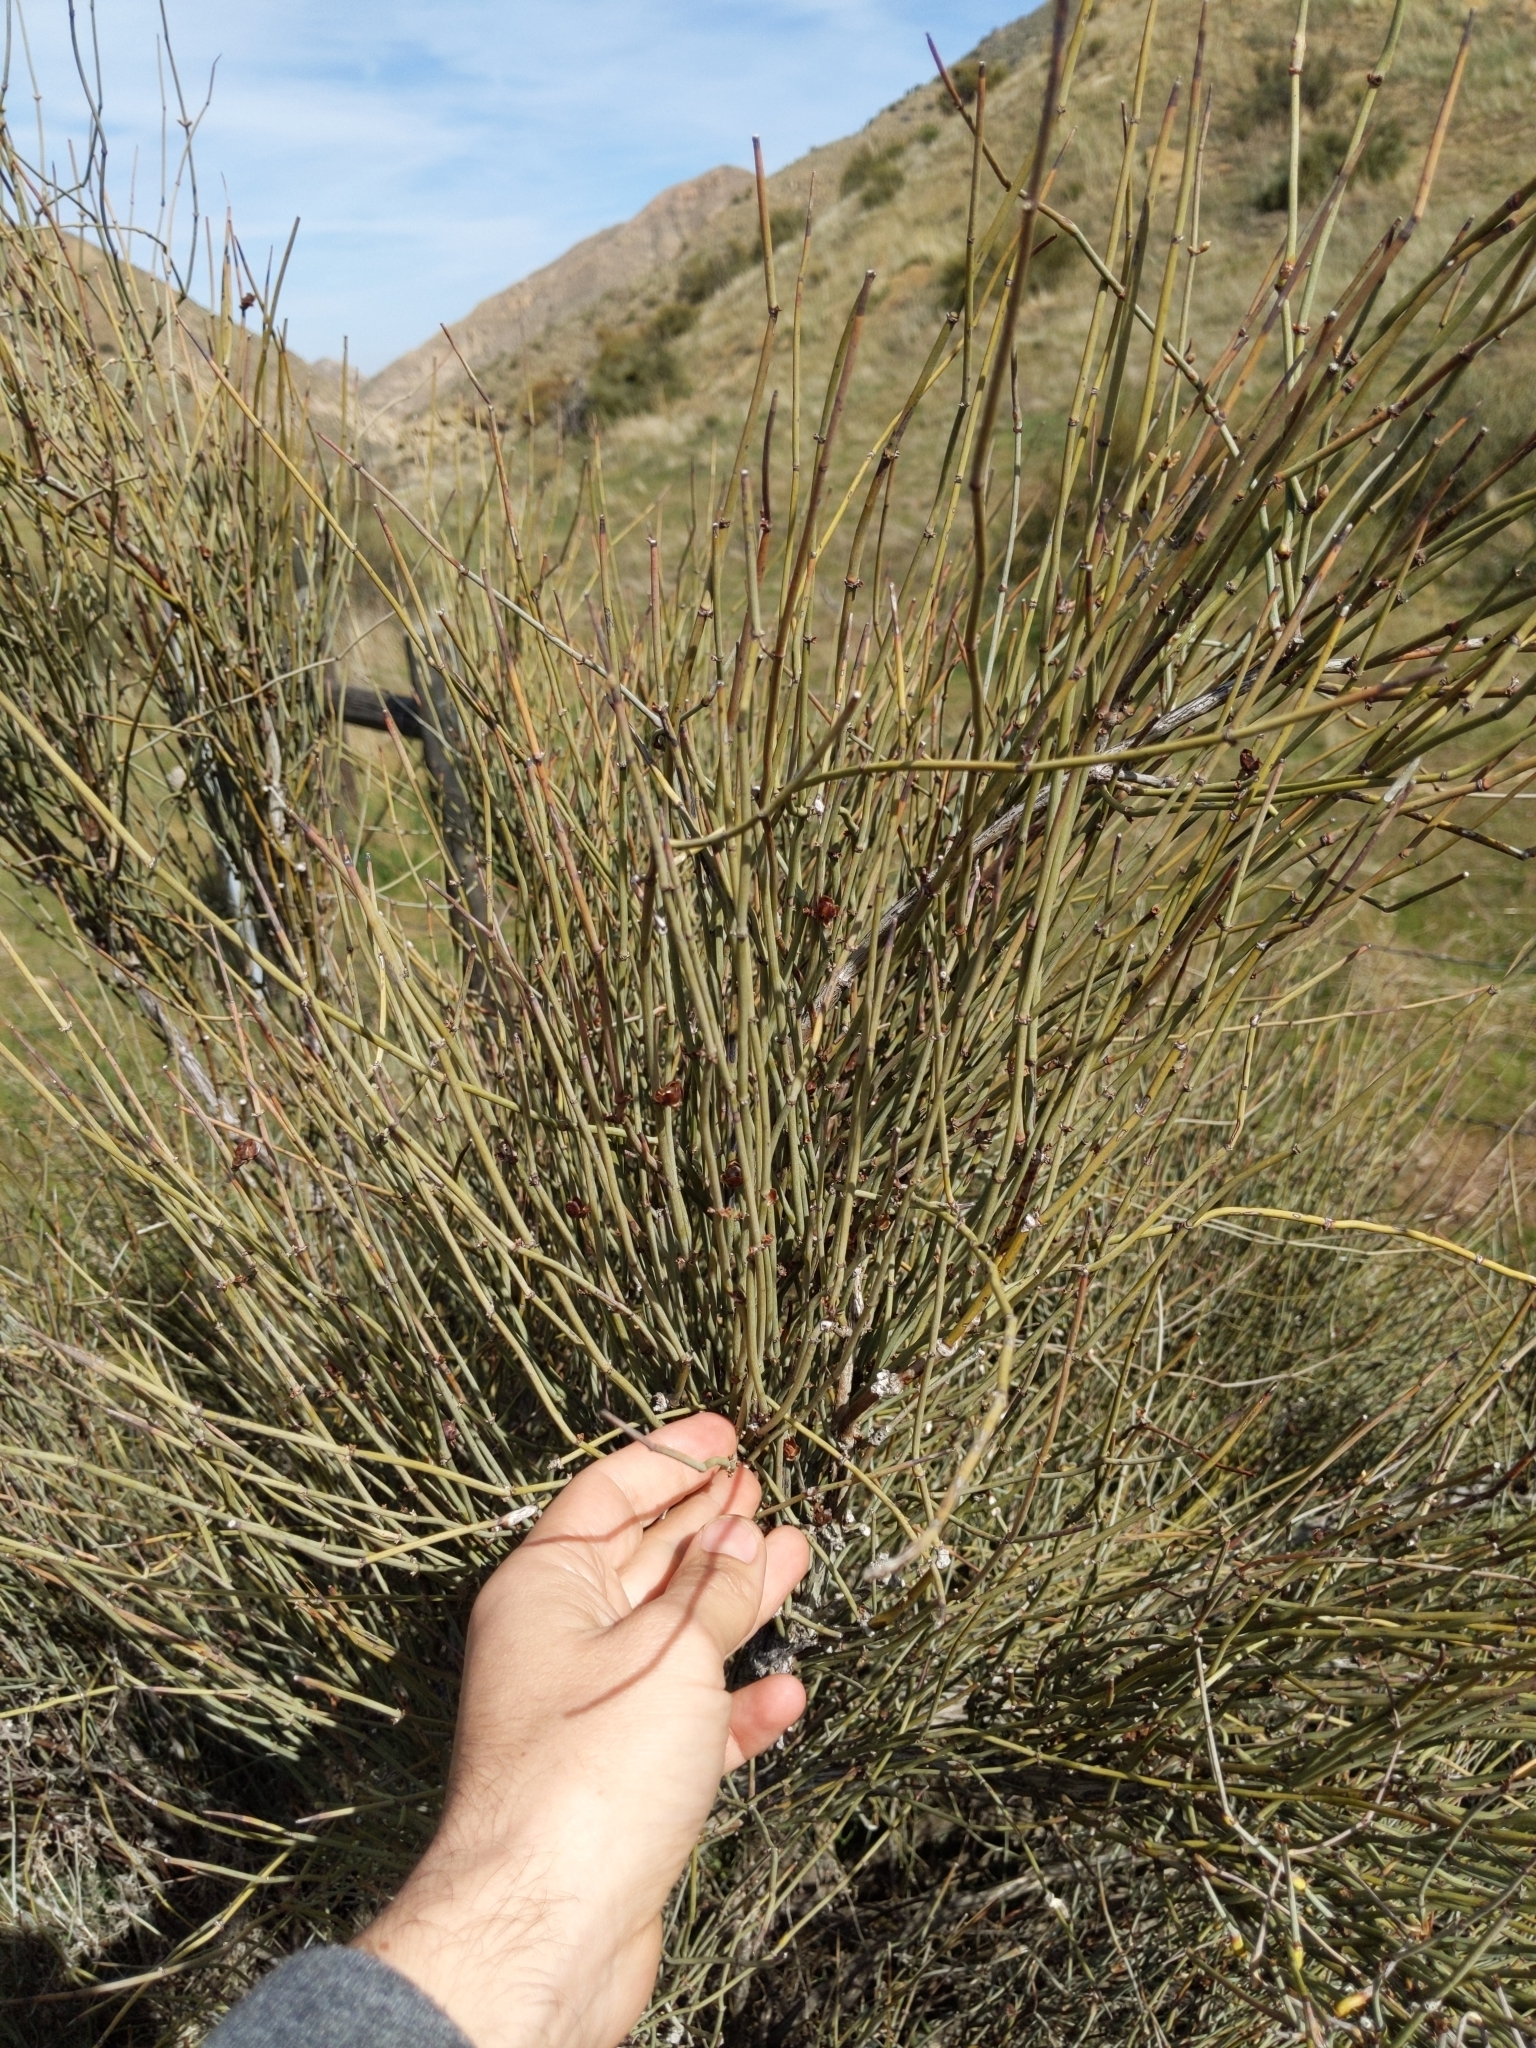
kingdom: Plantae
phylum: Tracheophyta
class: Gnetopsida
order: Ephedrales
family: Ephedraceae
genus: Ephedra
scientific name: Ephedra californica
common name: California ephedra
